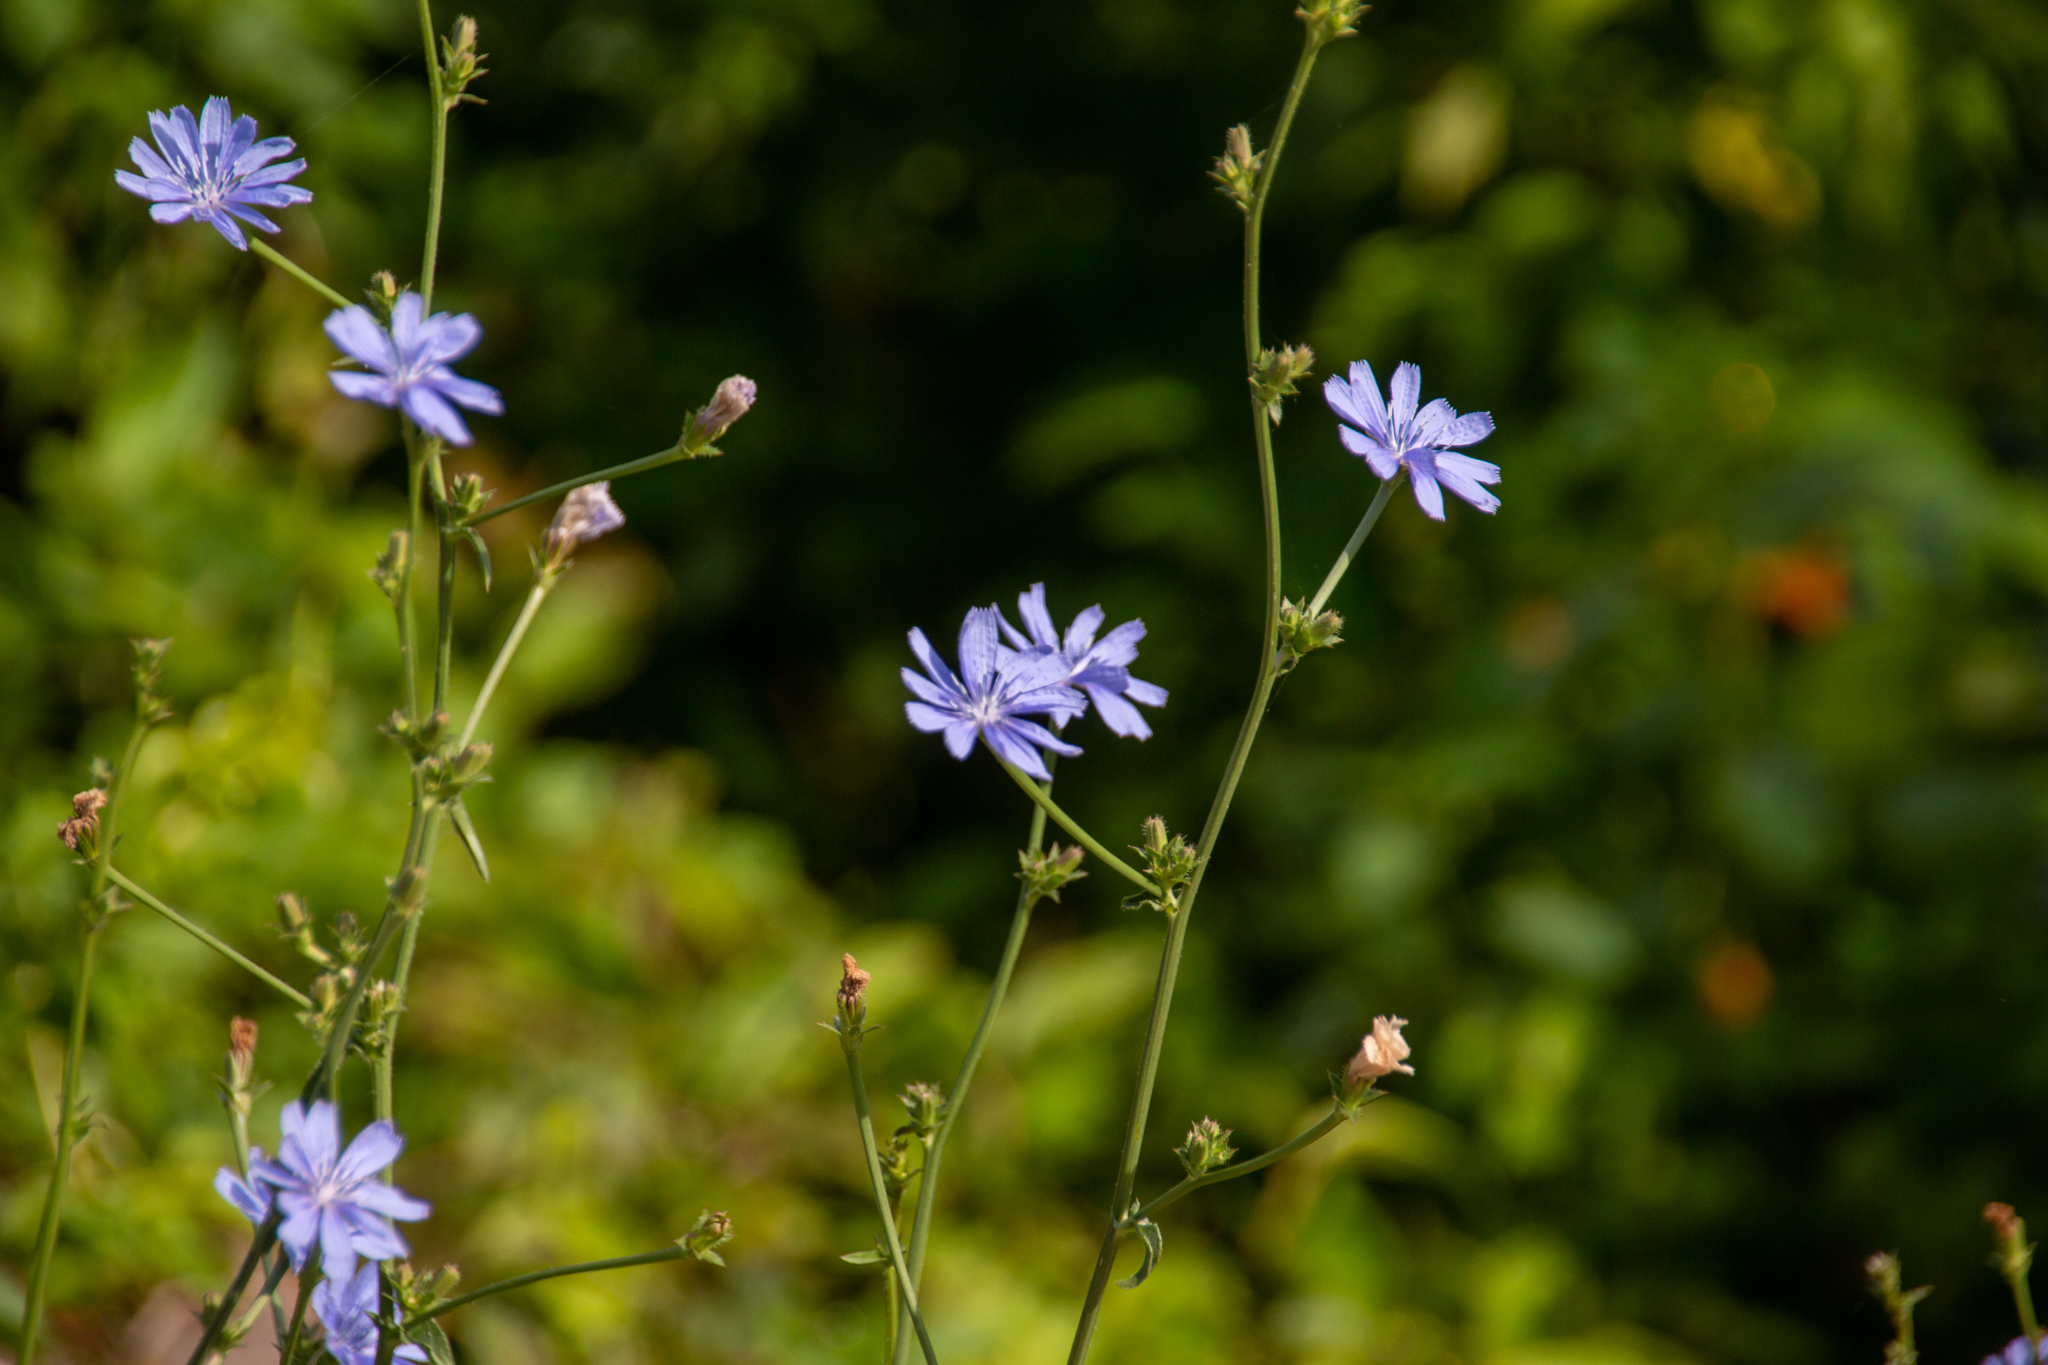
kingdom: Plantae
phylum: Tracheophyta
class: Magnoliopsida
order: Asterales
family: Asteraceae
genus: Cichorium
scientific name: Cichorium intybus
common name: Chicory
